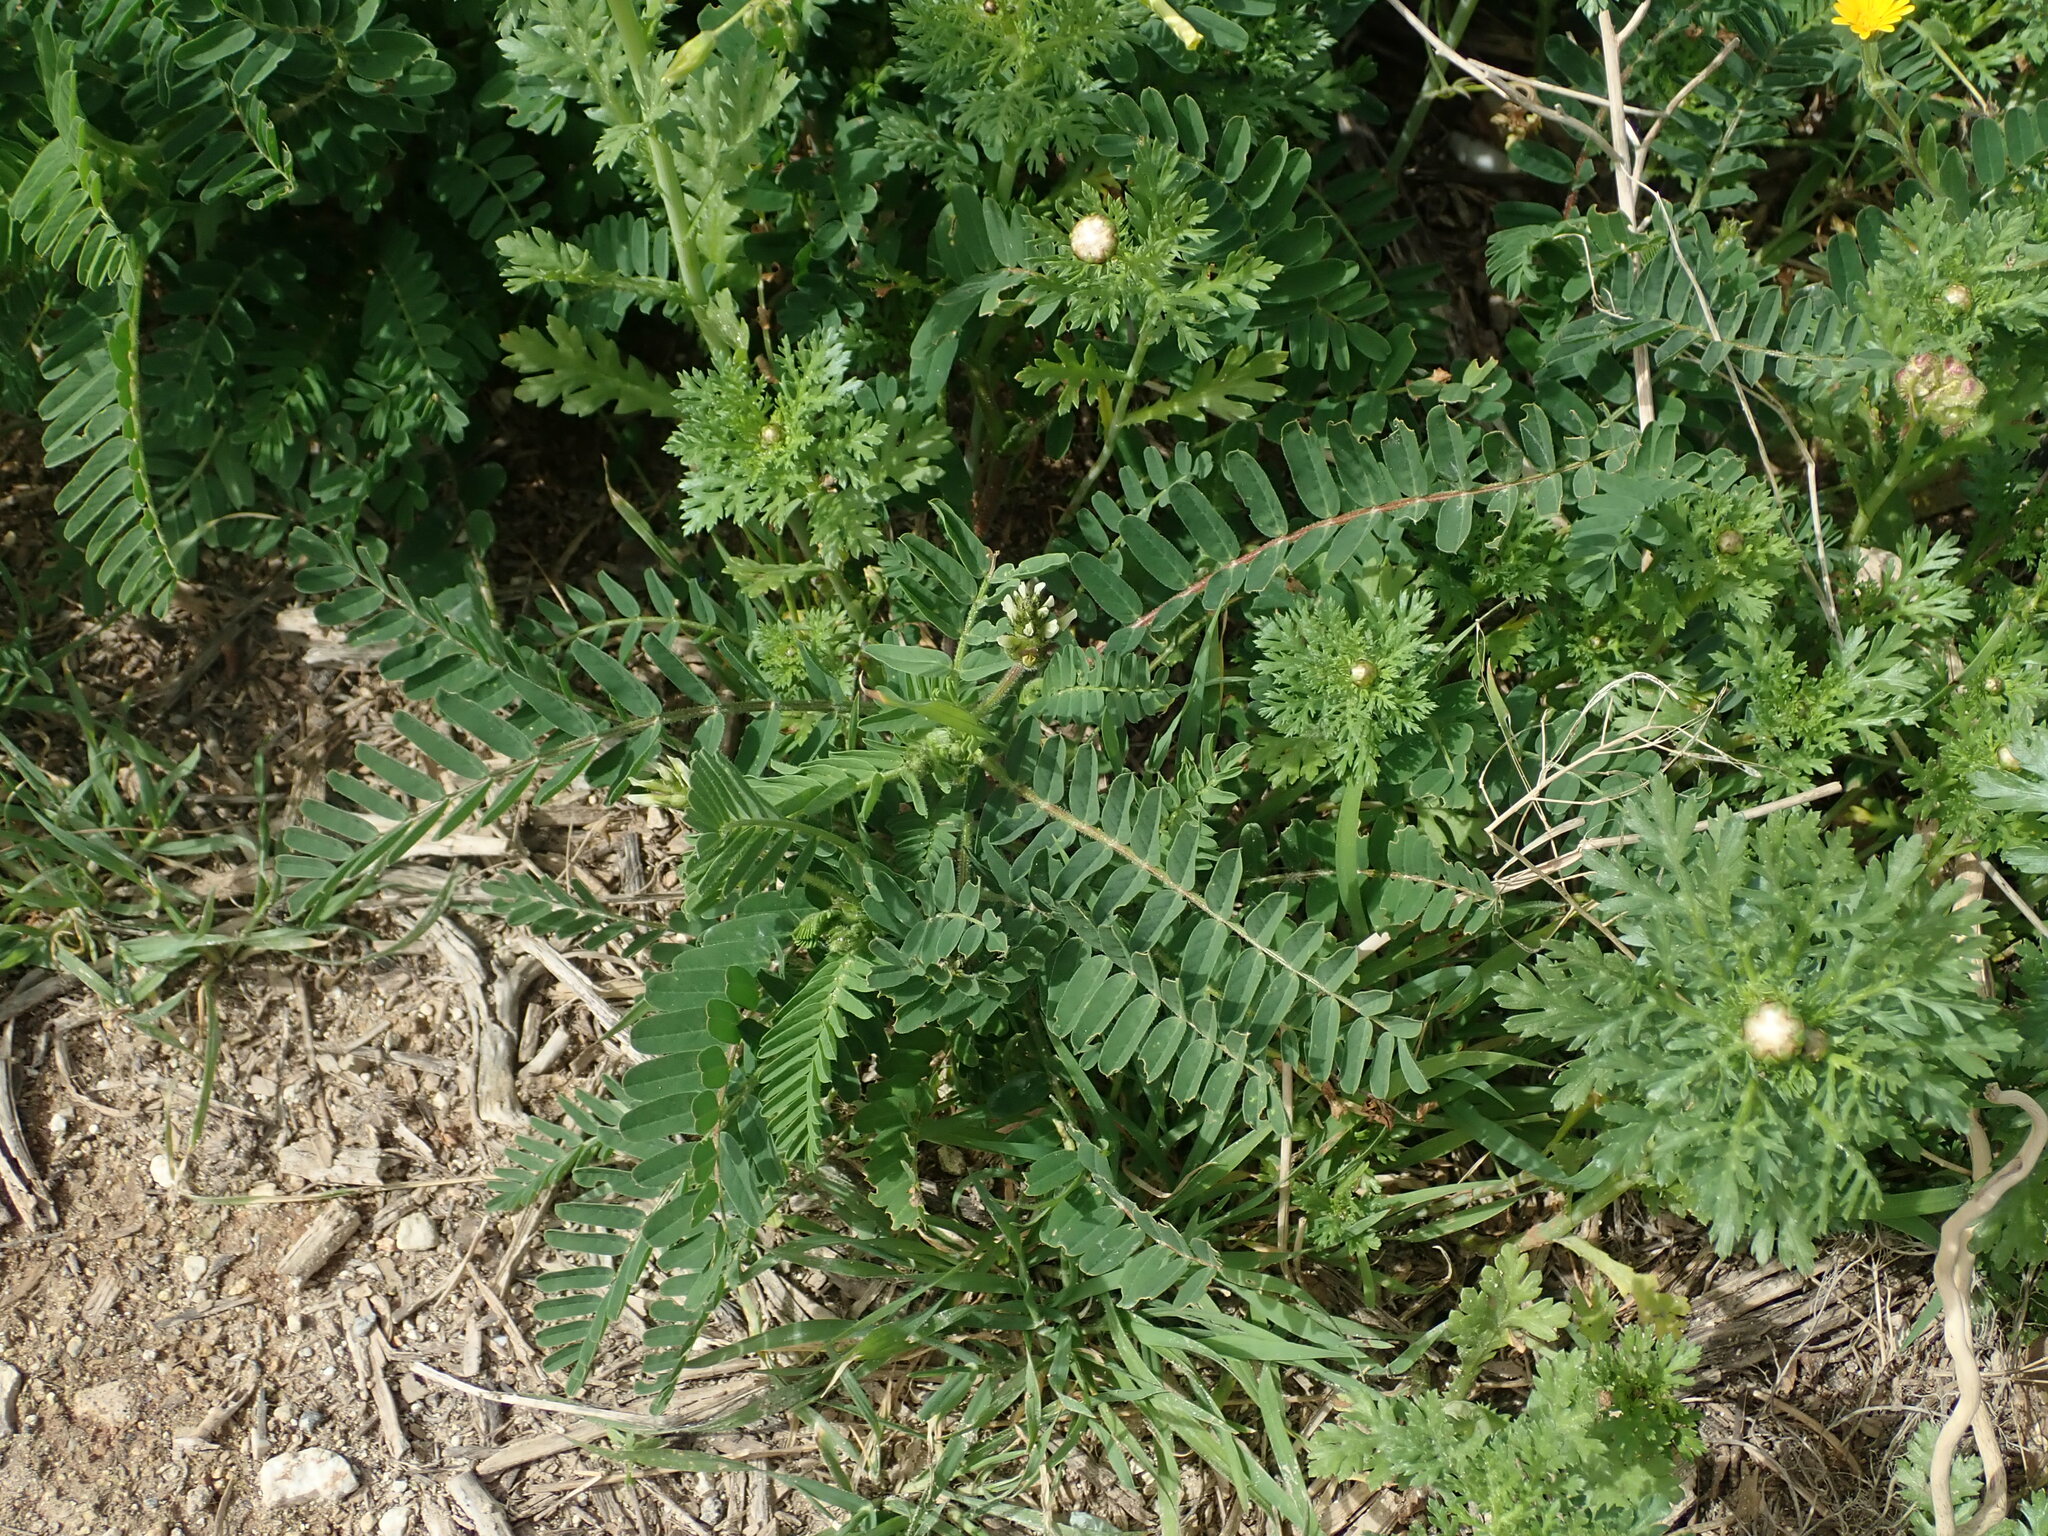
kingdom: Plantae
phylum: Tracheophyta
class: Magnoliopsida
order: Fabales
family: Fabaceae
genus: Astragalus
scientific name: Astragalus boeticus
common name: Milk-vetch
